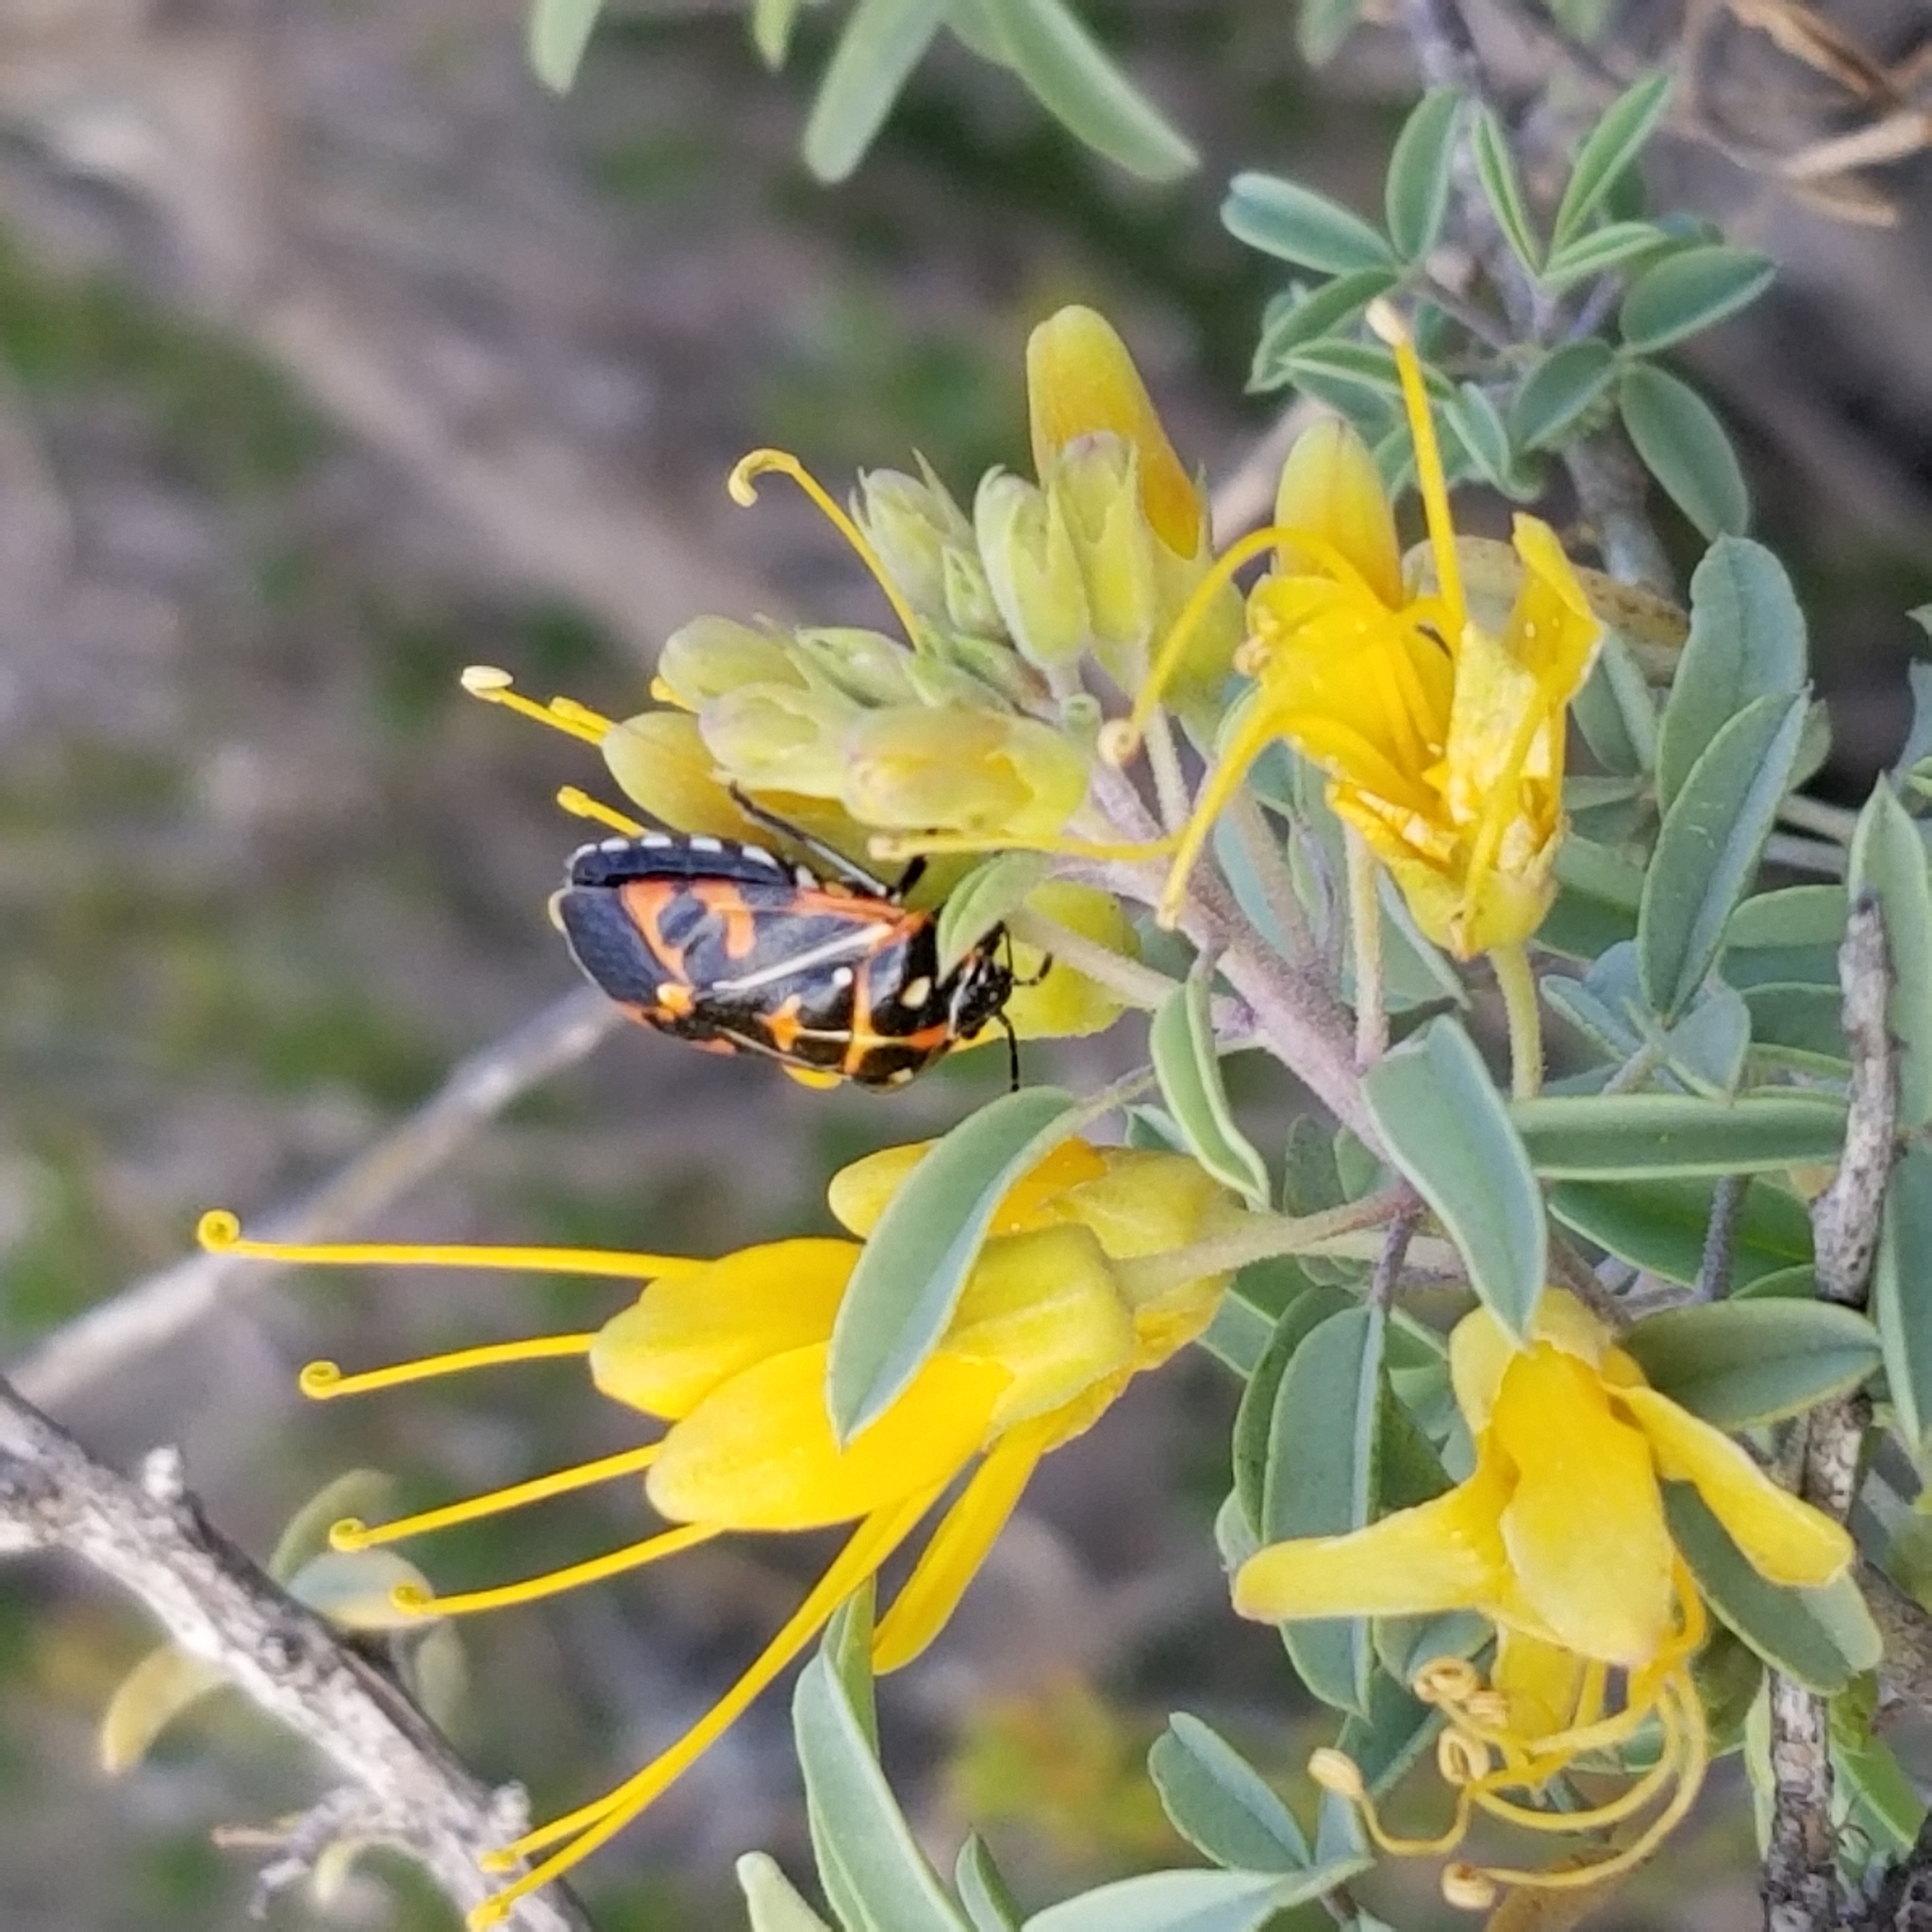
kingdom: Animalia
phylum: Arthropoda
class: Insecta
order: Hemiptera
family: Pentatomidae
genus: Murgantia
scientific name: Murgantia histrionica
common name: Harlequin bug
